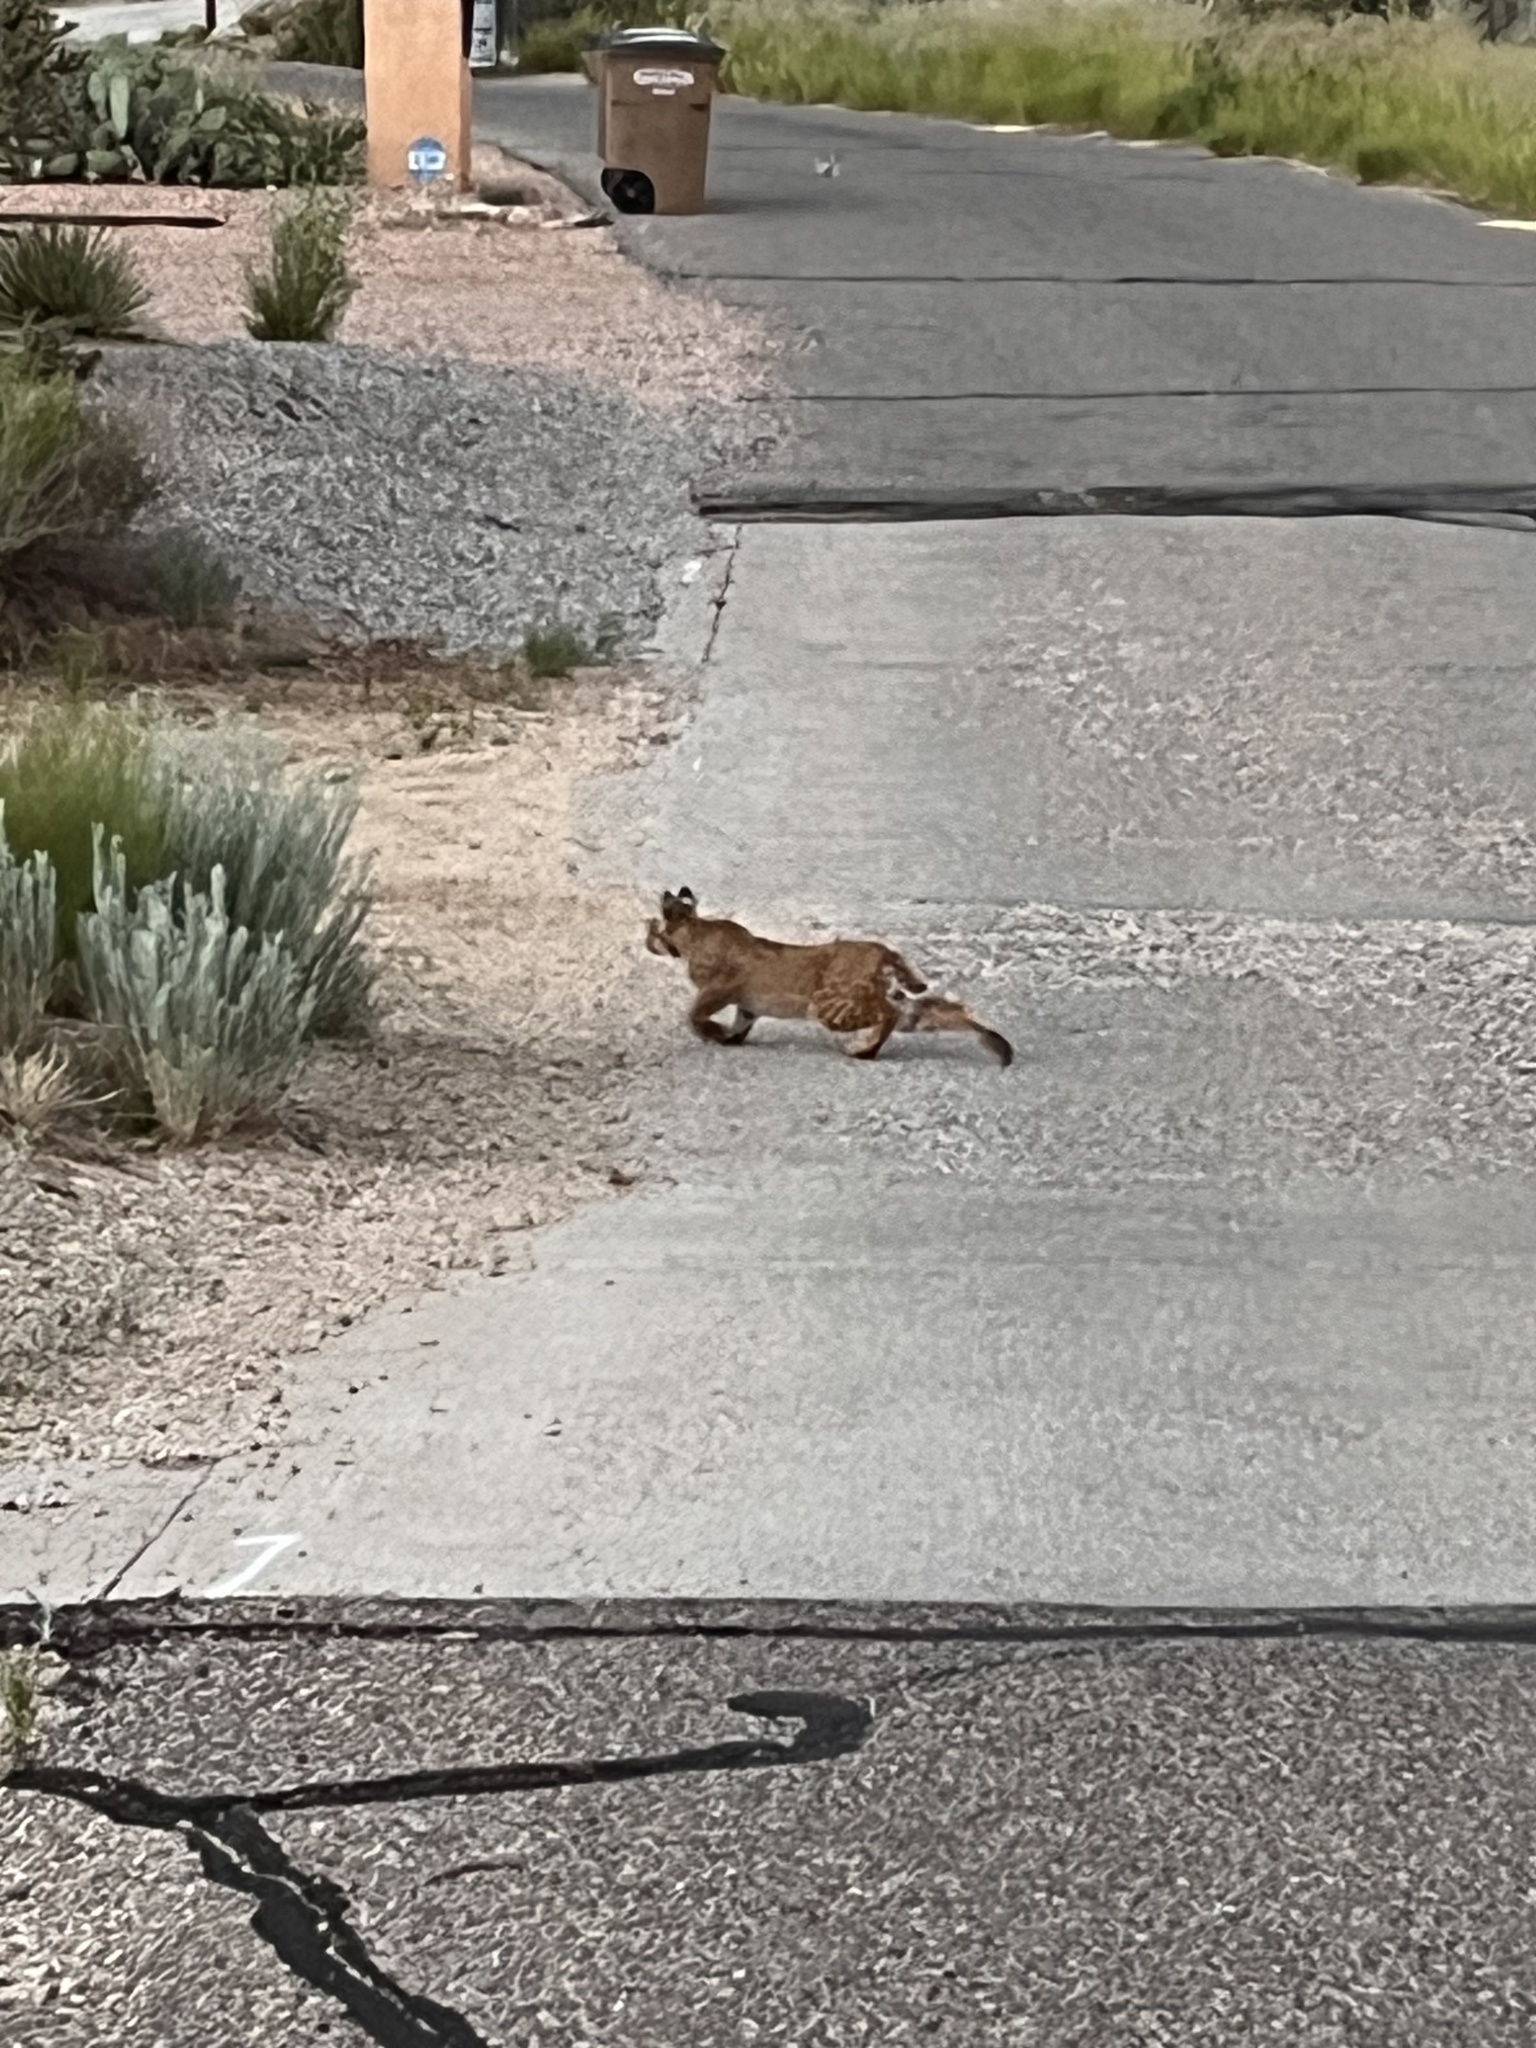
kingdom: Animalia
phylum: Chordata
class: Mammalia
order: Carnivora
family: Felidae
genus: Lynx
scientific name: Lynx rufus
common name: Bobcat
